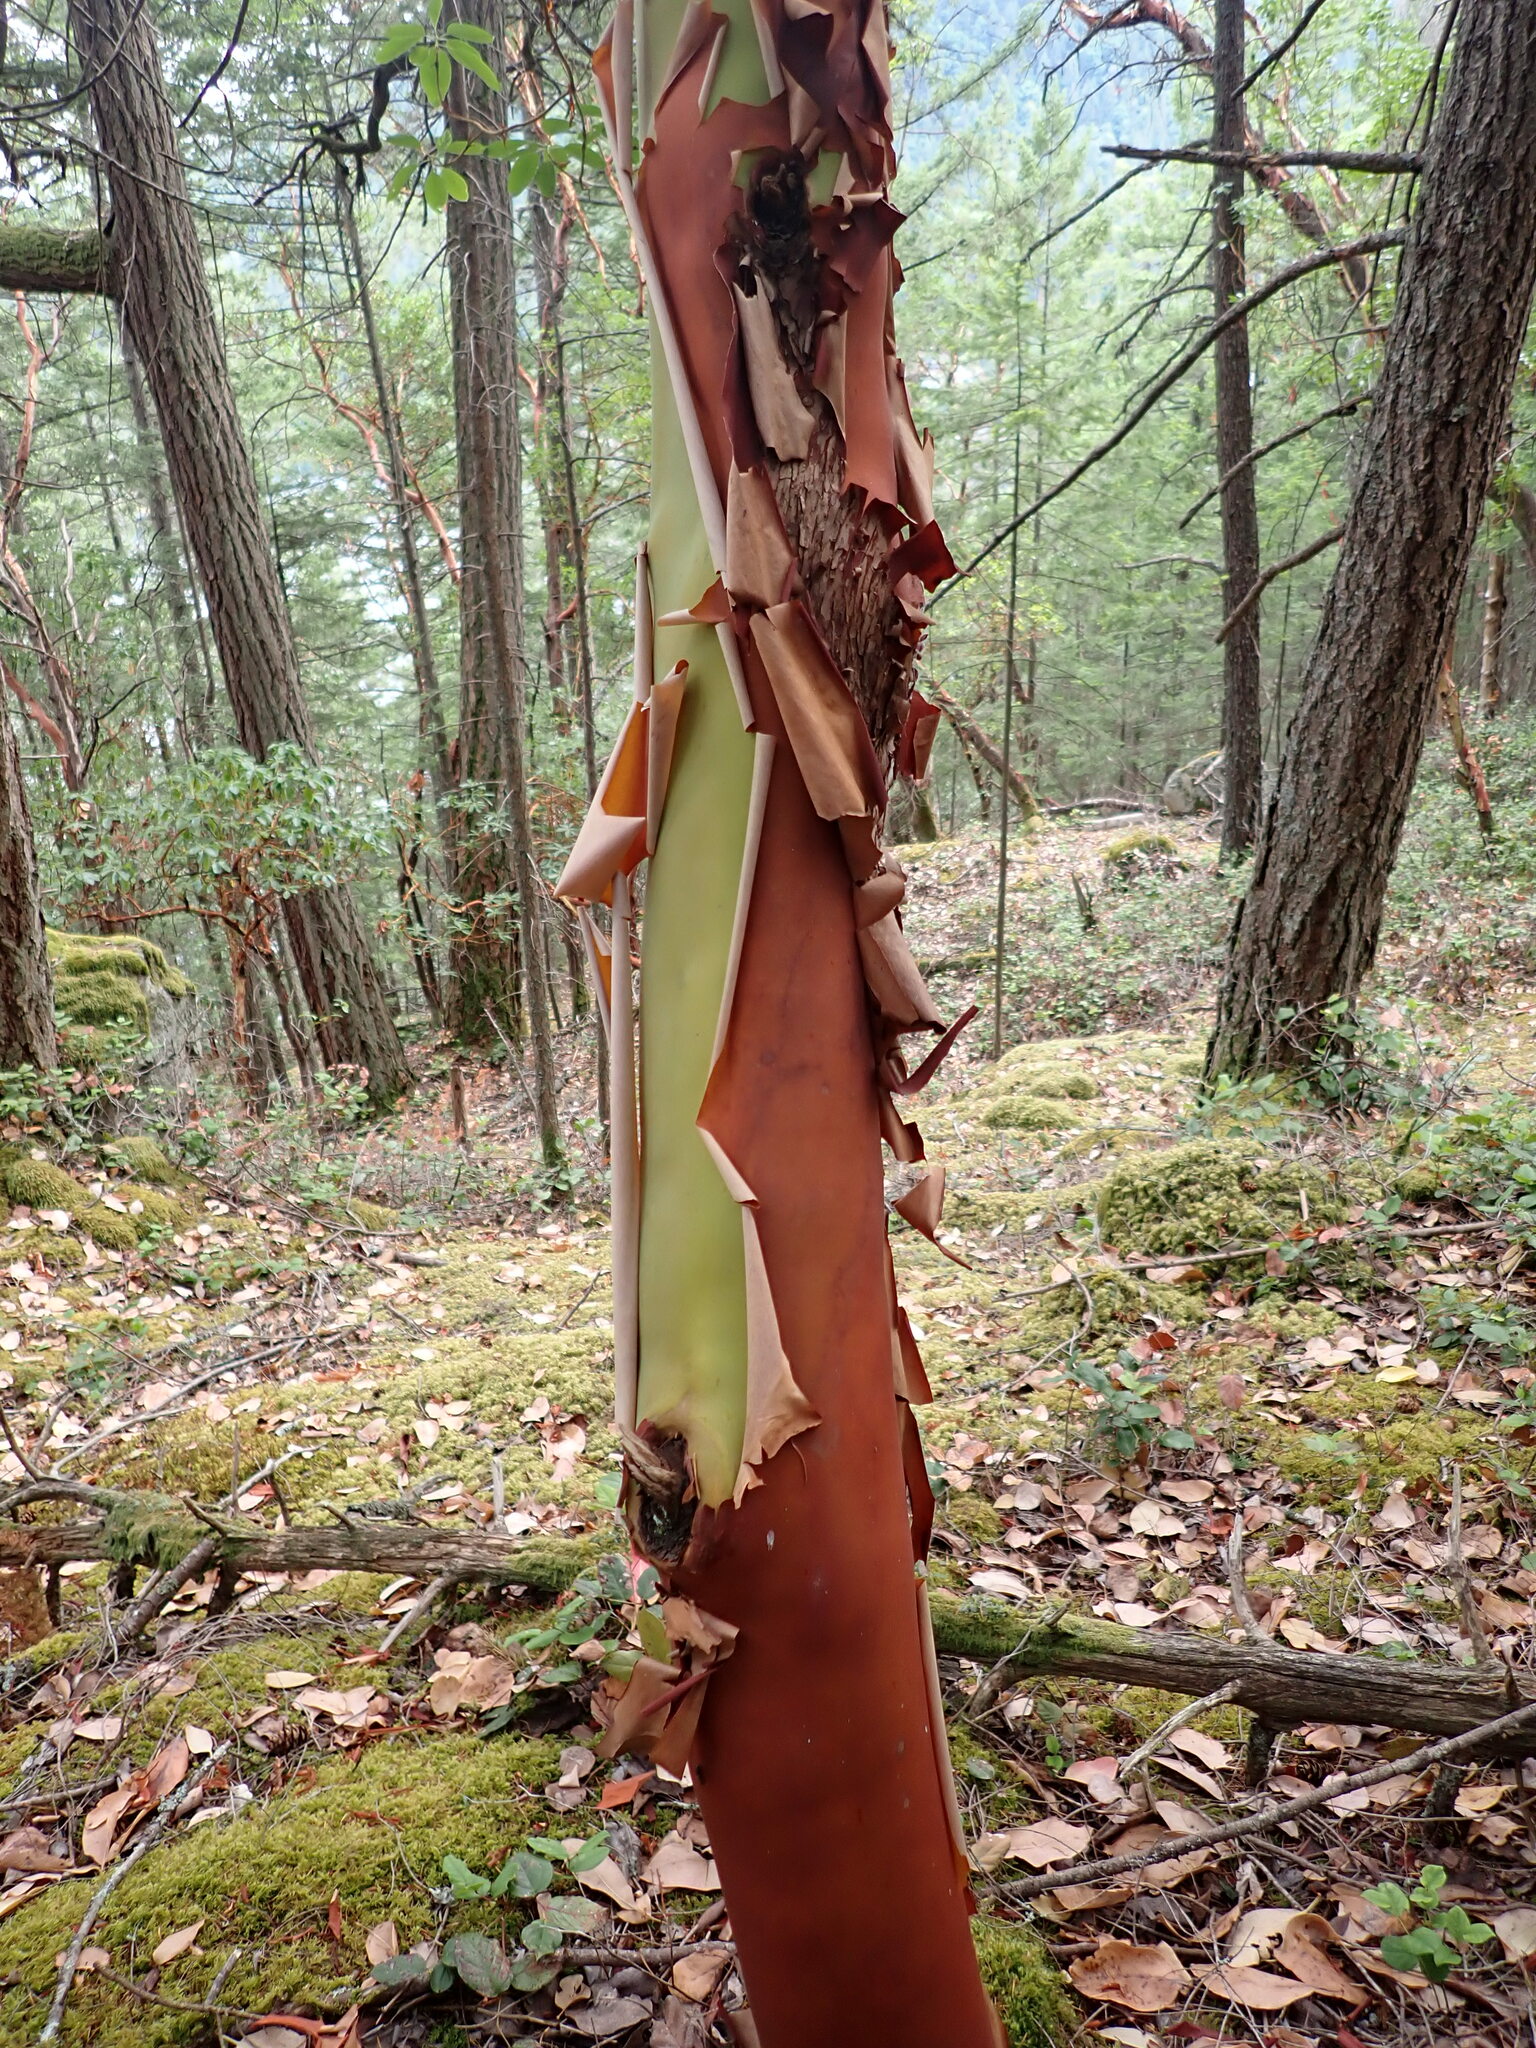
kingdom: Plantae
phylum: Tracheophyta
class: Magnoliopsida
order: Ericales
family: Ericaceae
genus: Arbutus
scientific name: Arbutus menziesii
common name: Pacific madrone
